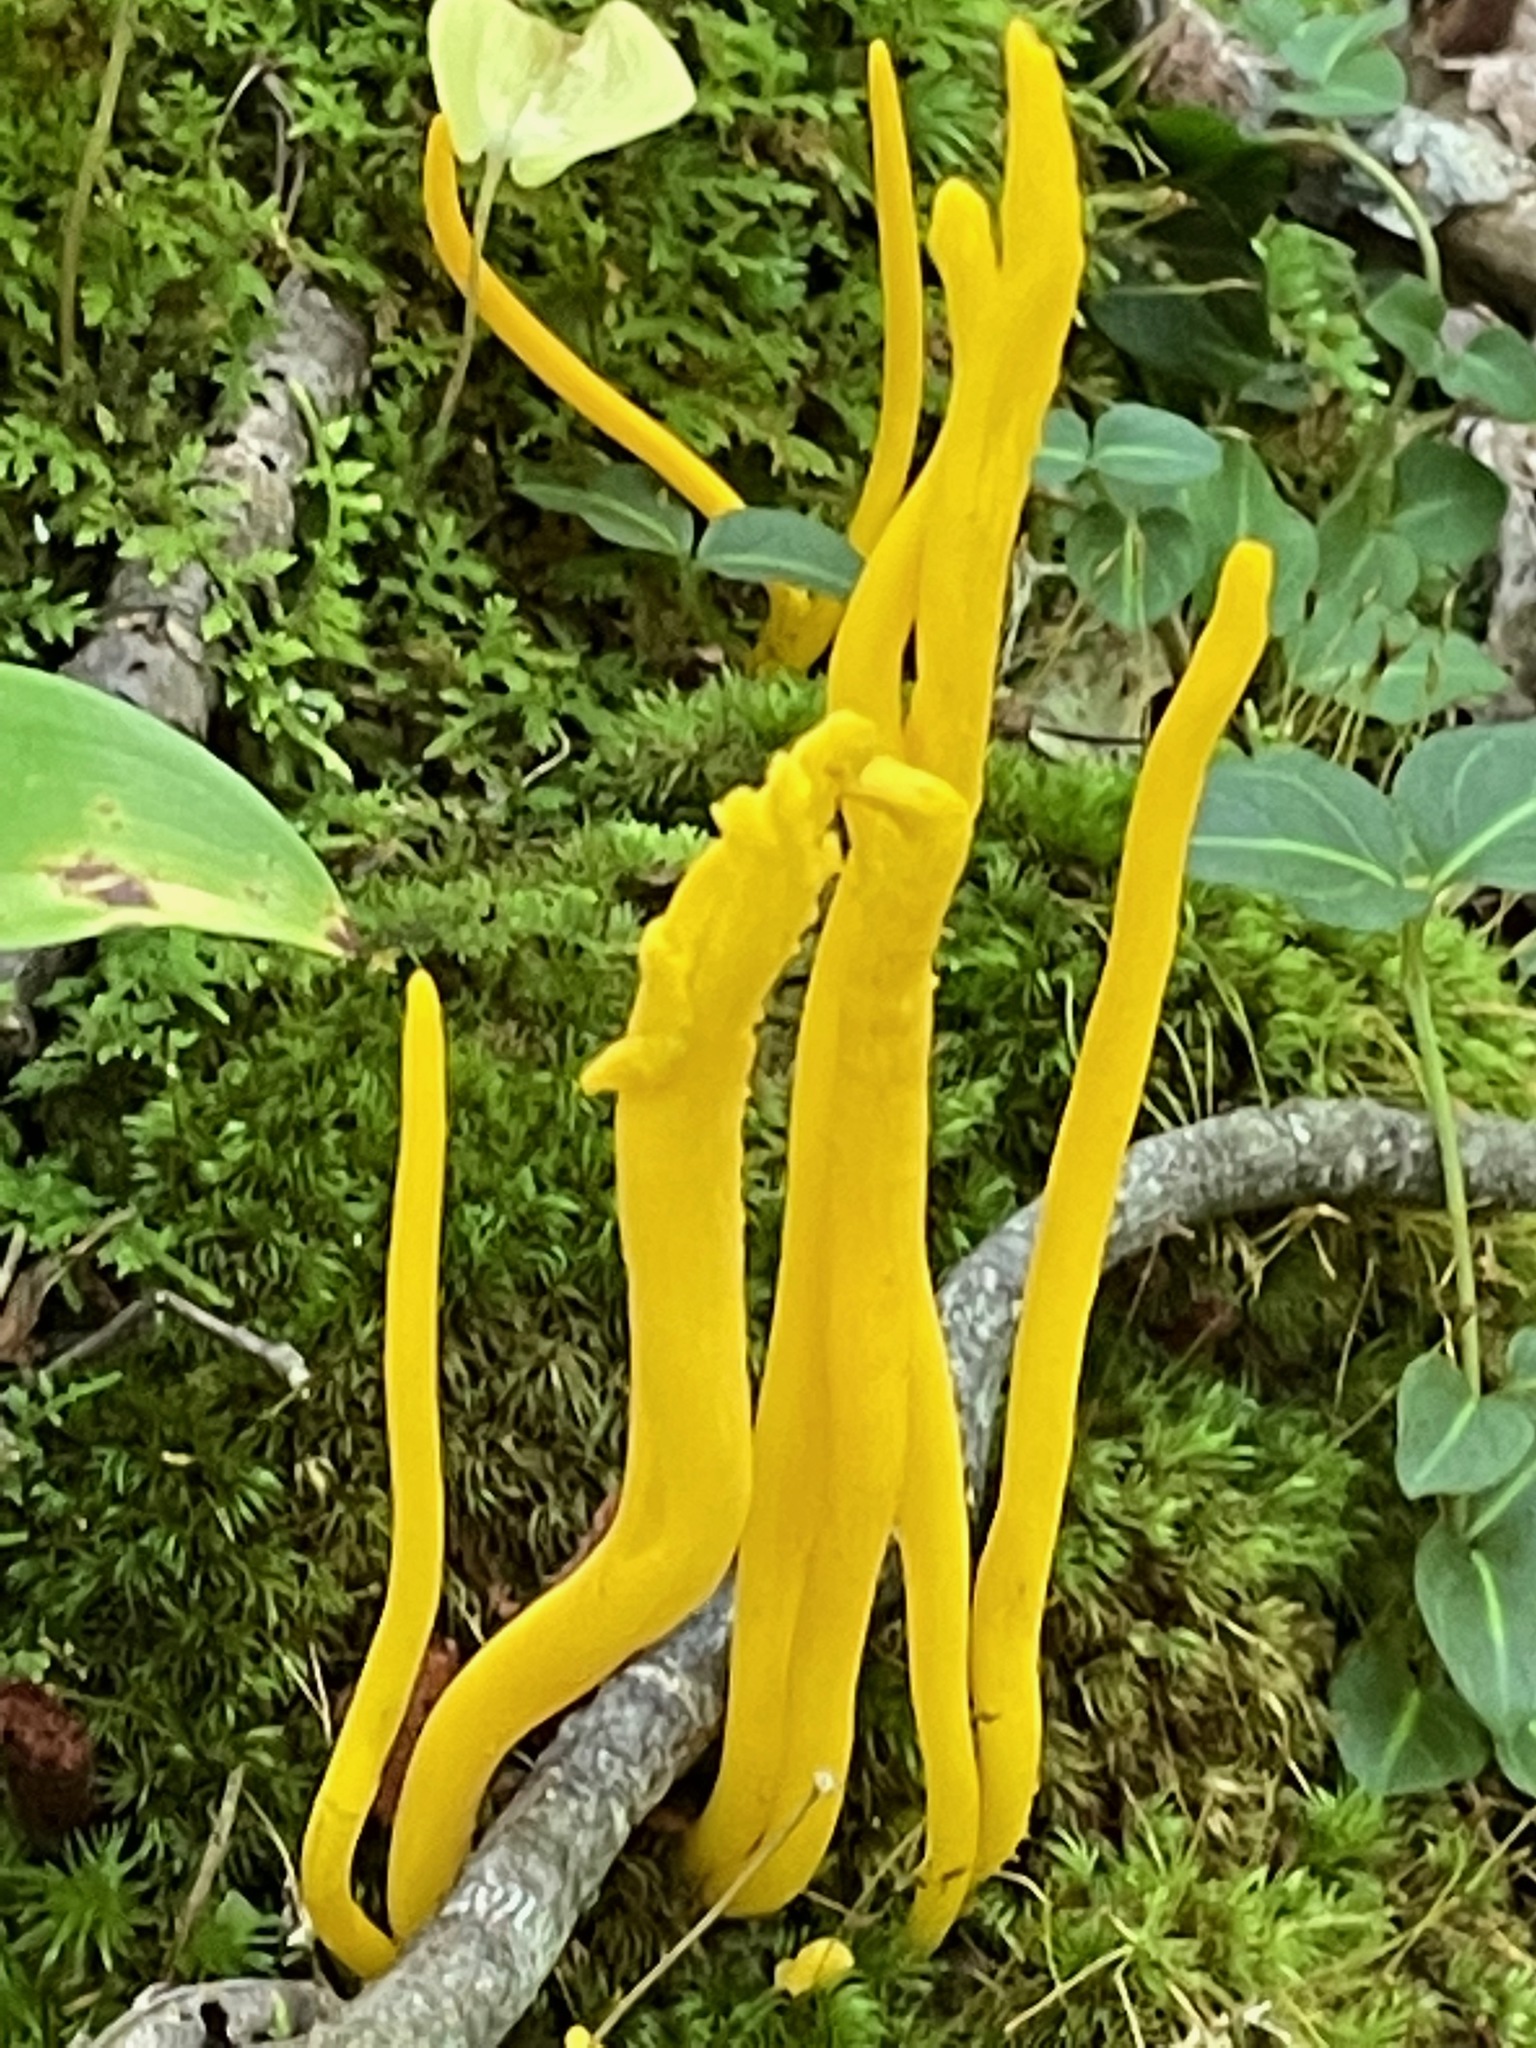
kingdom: Fungi
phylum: Basidiomycota
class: Agaricomycetes
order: Agaricales
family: Clavariaceae
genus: Clavulinopsis
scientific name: Clavulinopsis fusiformis
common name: Golden spindles
